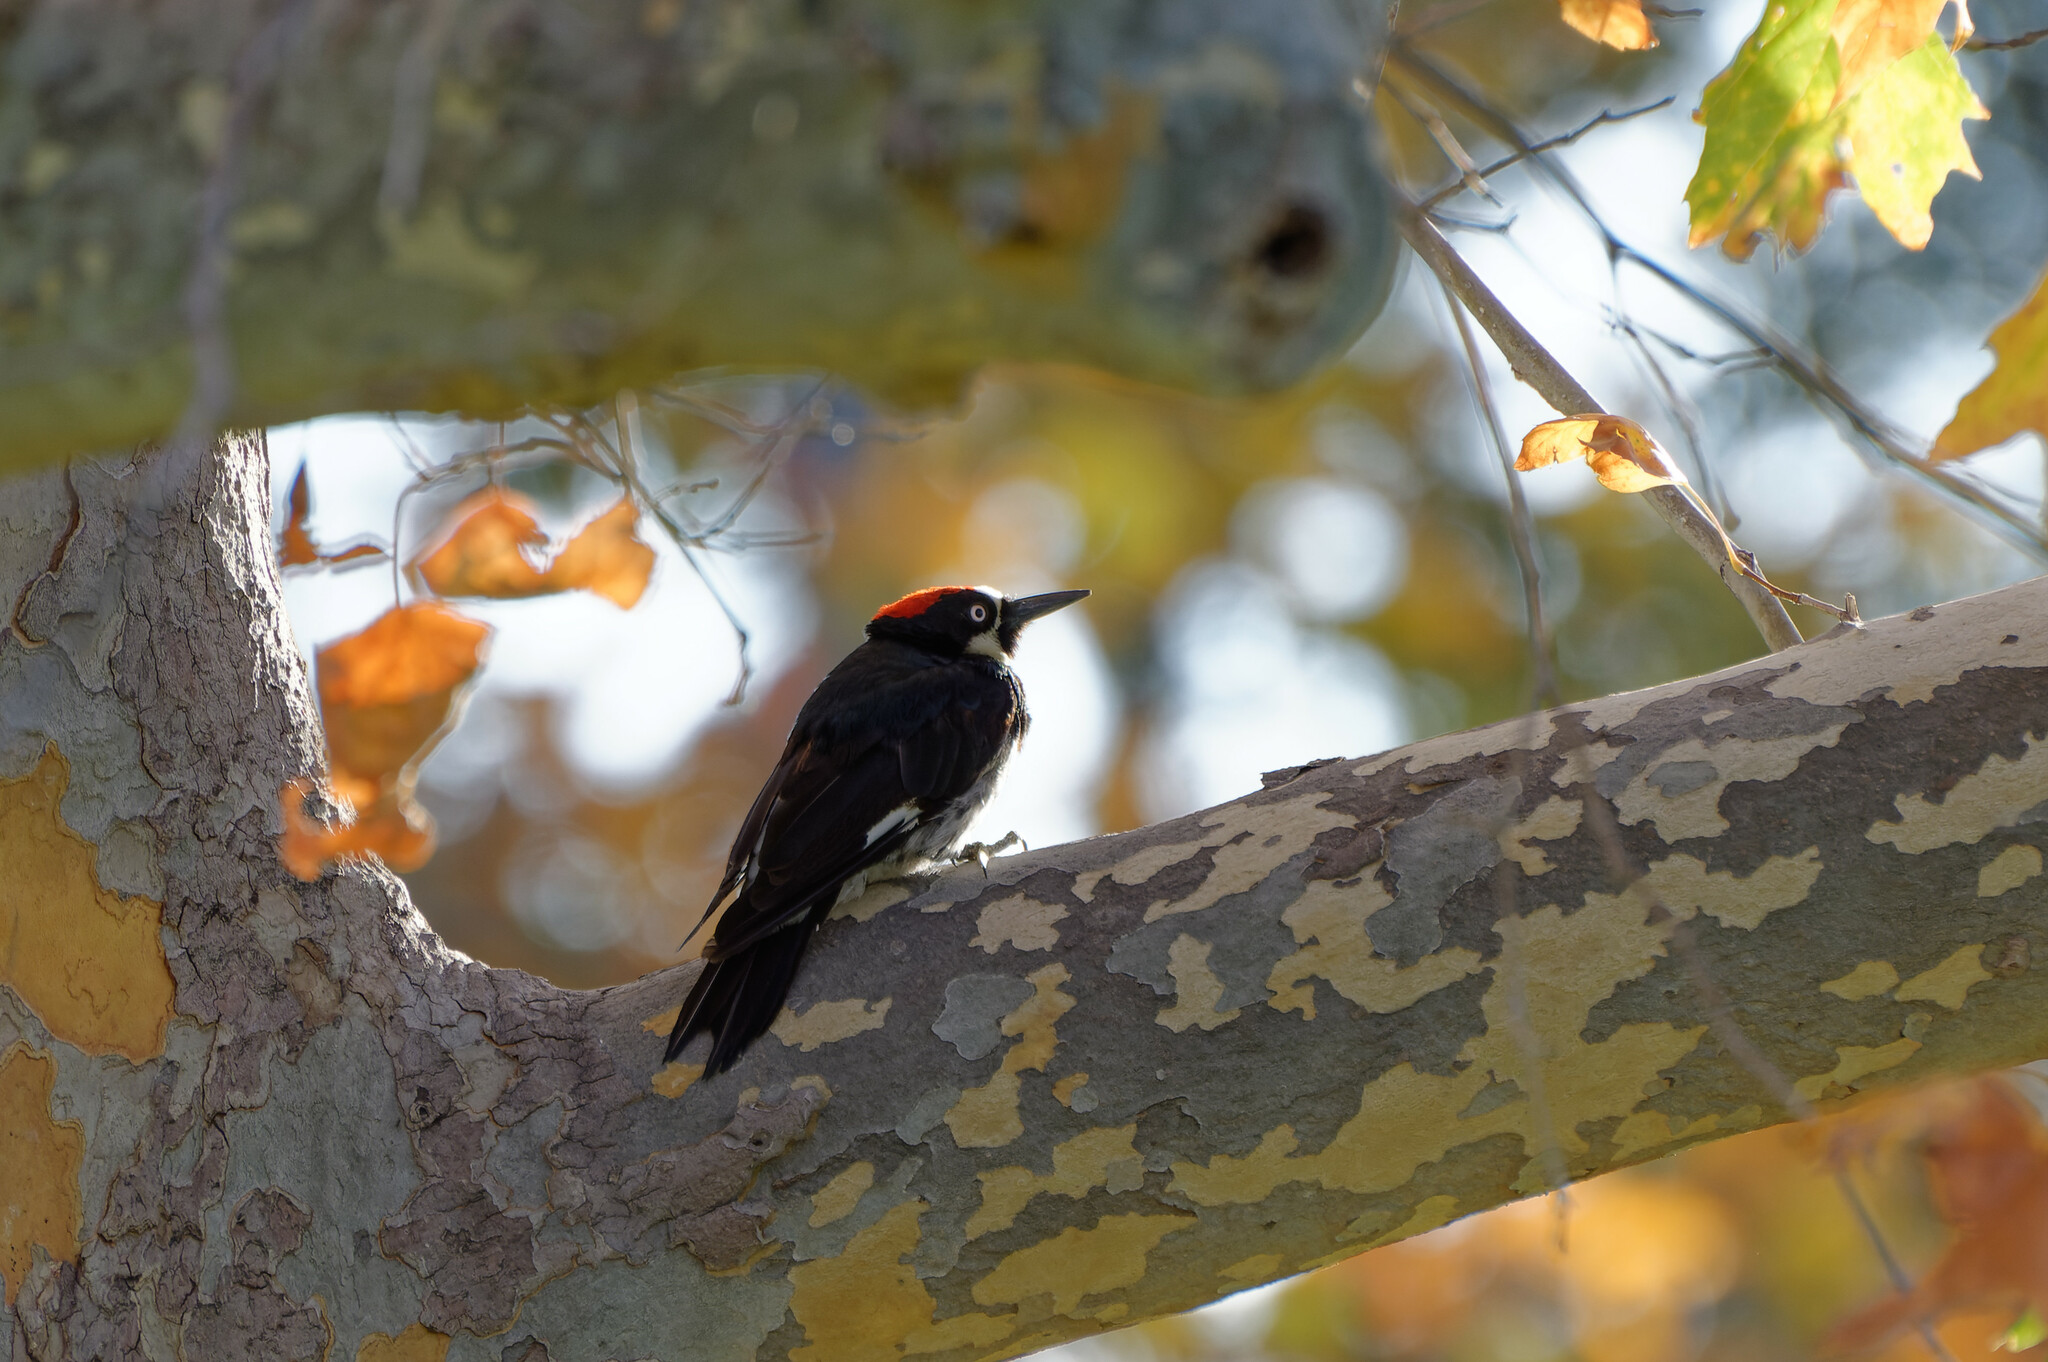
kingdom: Animalia
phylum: Chordata
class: Aves
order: Piciformes
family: Picidae
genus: Melanerpes
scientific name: Melanerpes formicivorus
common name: Acorn woodpecker
